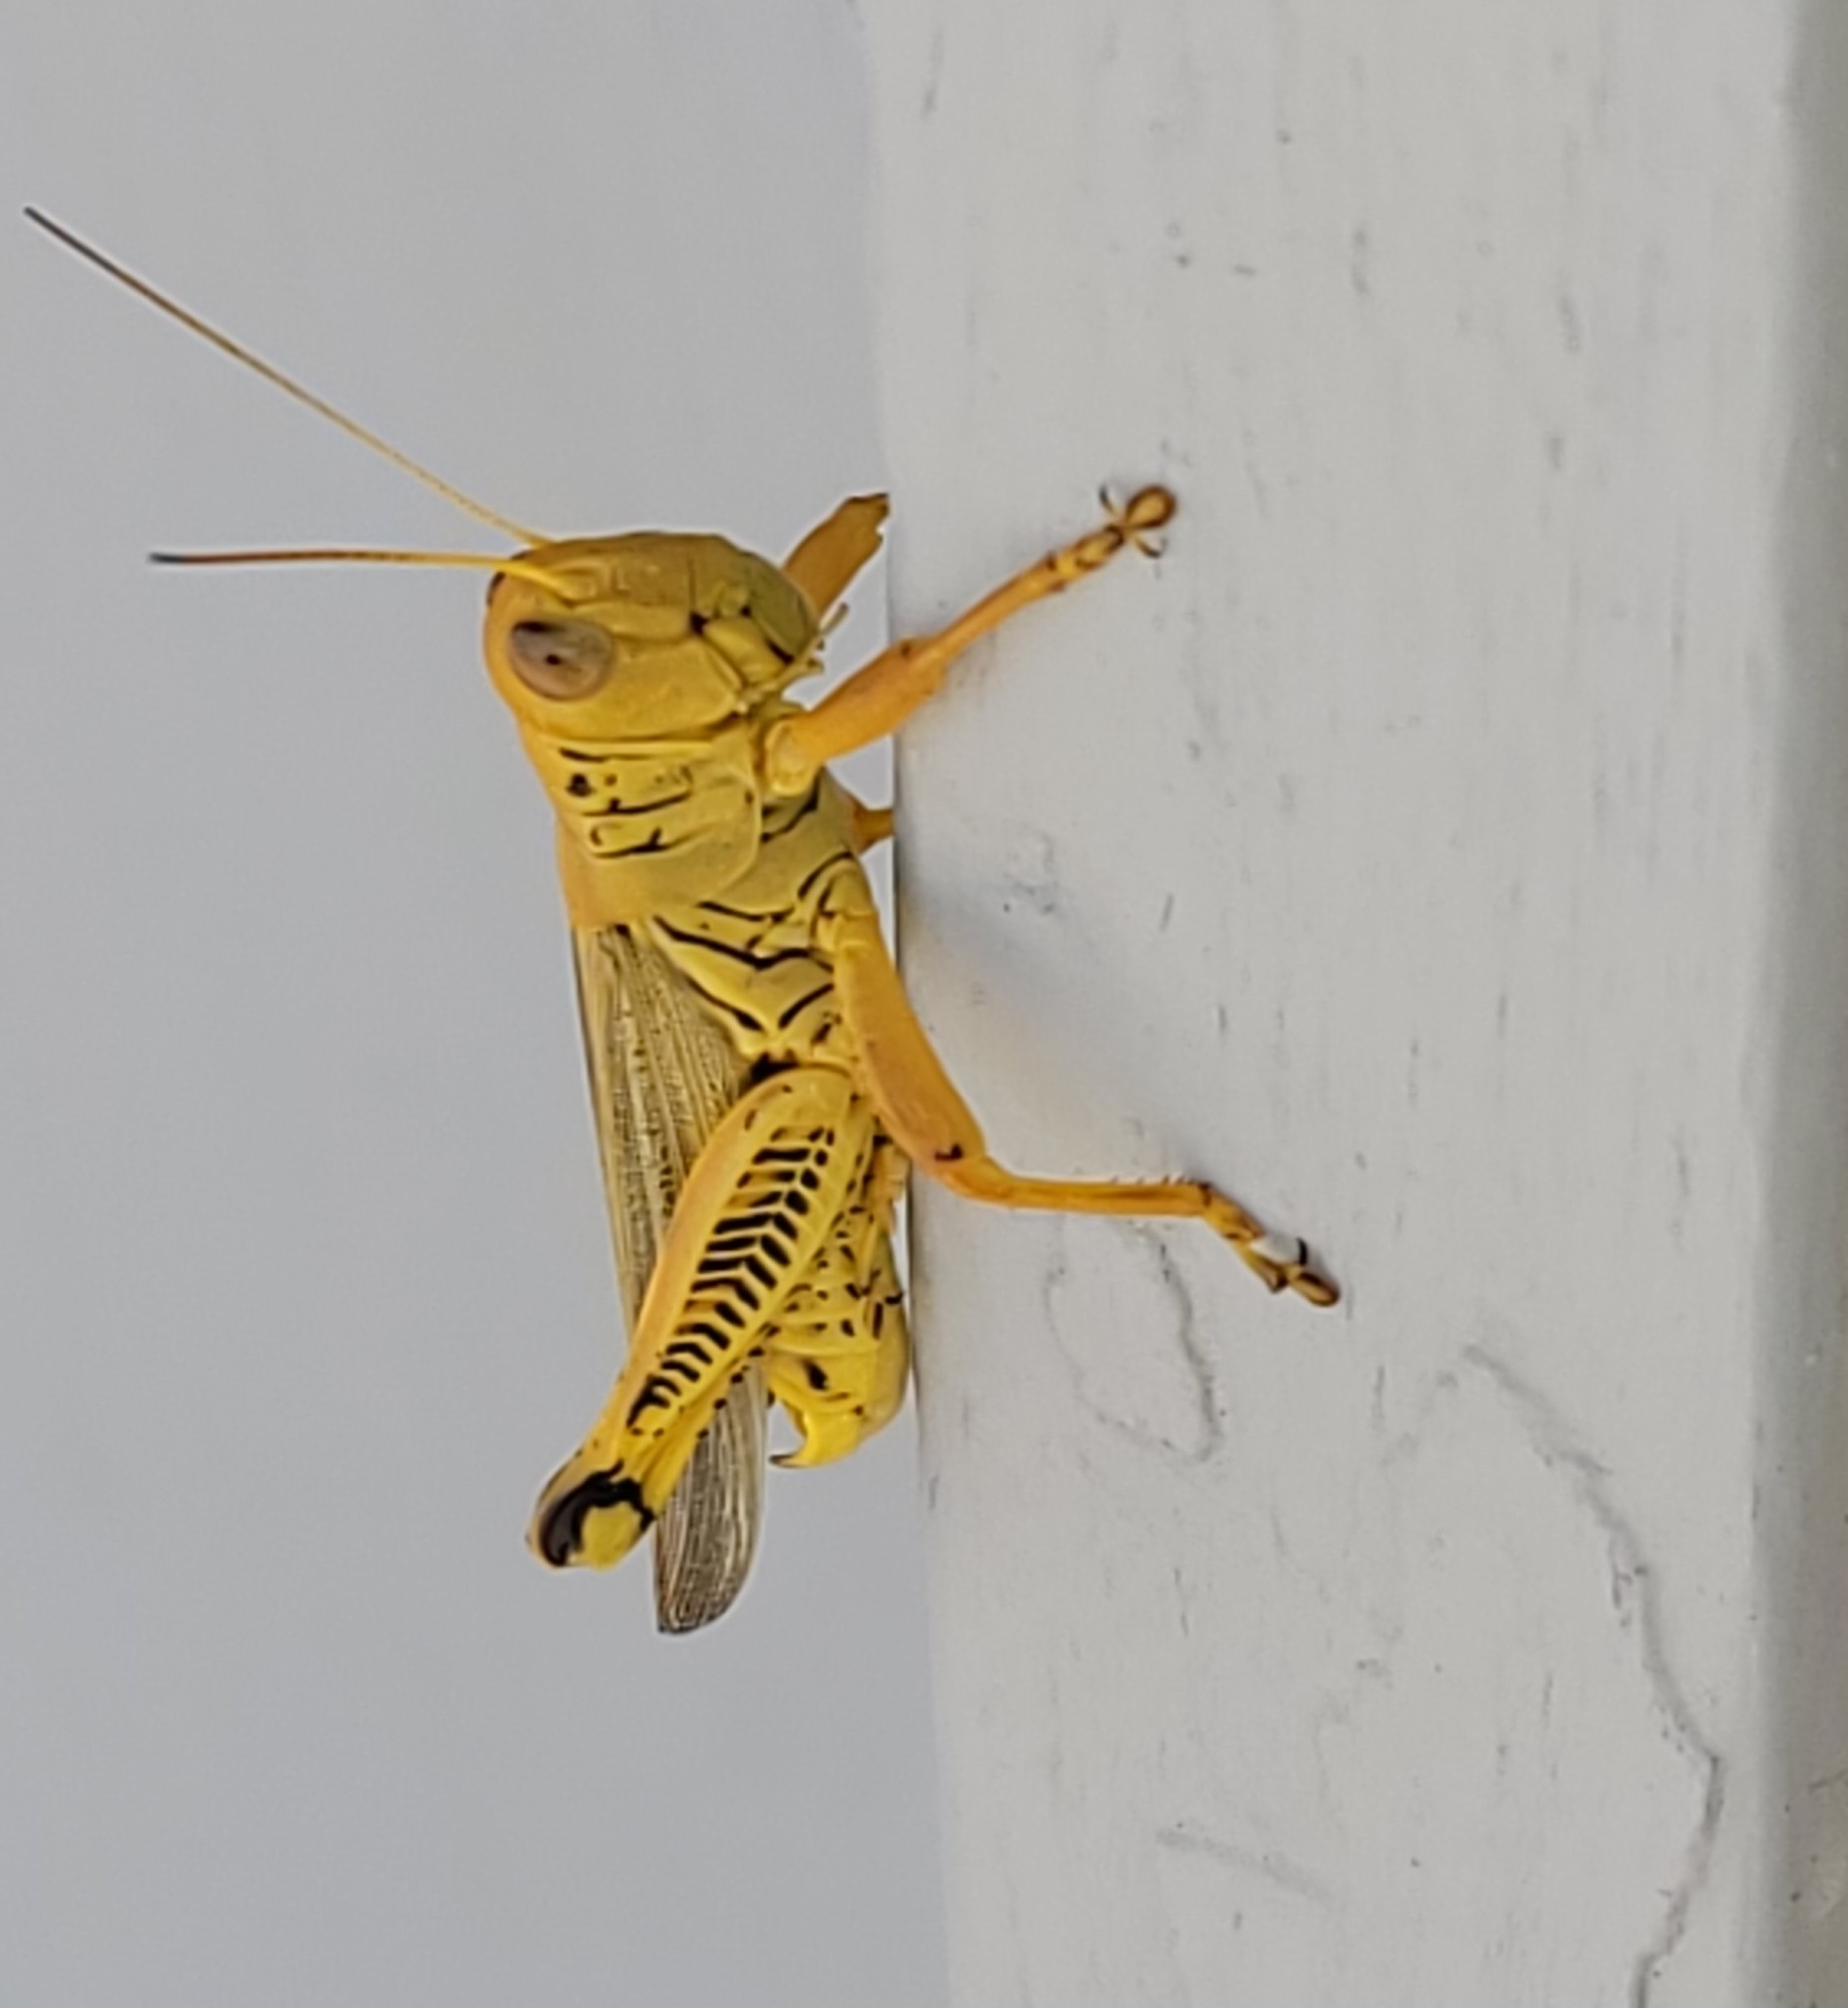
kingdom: Animalia
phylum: Arthropoda
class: Insecta
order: Orthoptera
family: Acrididae
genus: Melanoplus
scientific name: Melanoplus differentialis
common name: Differential grasshopper
